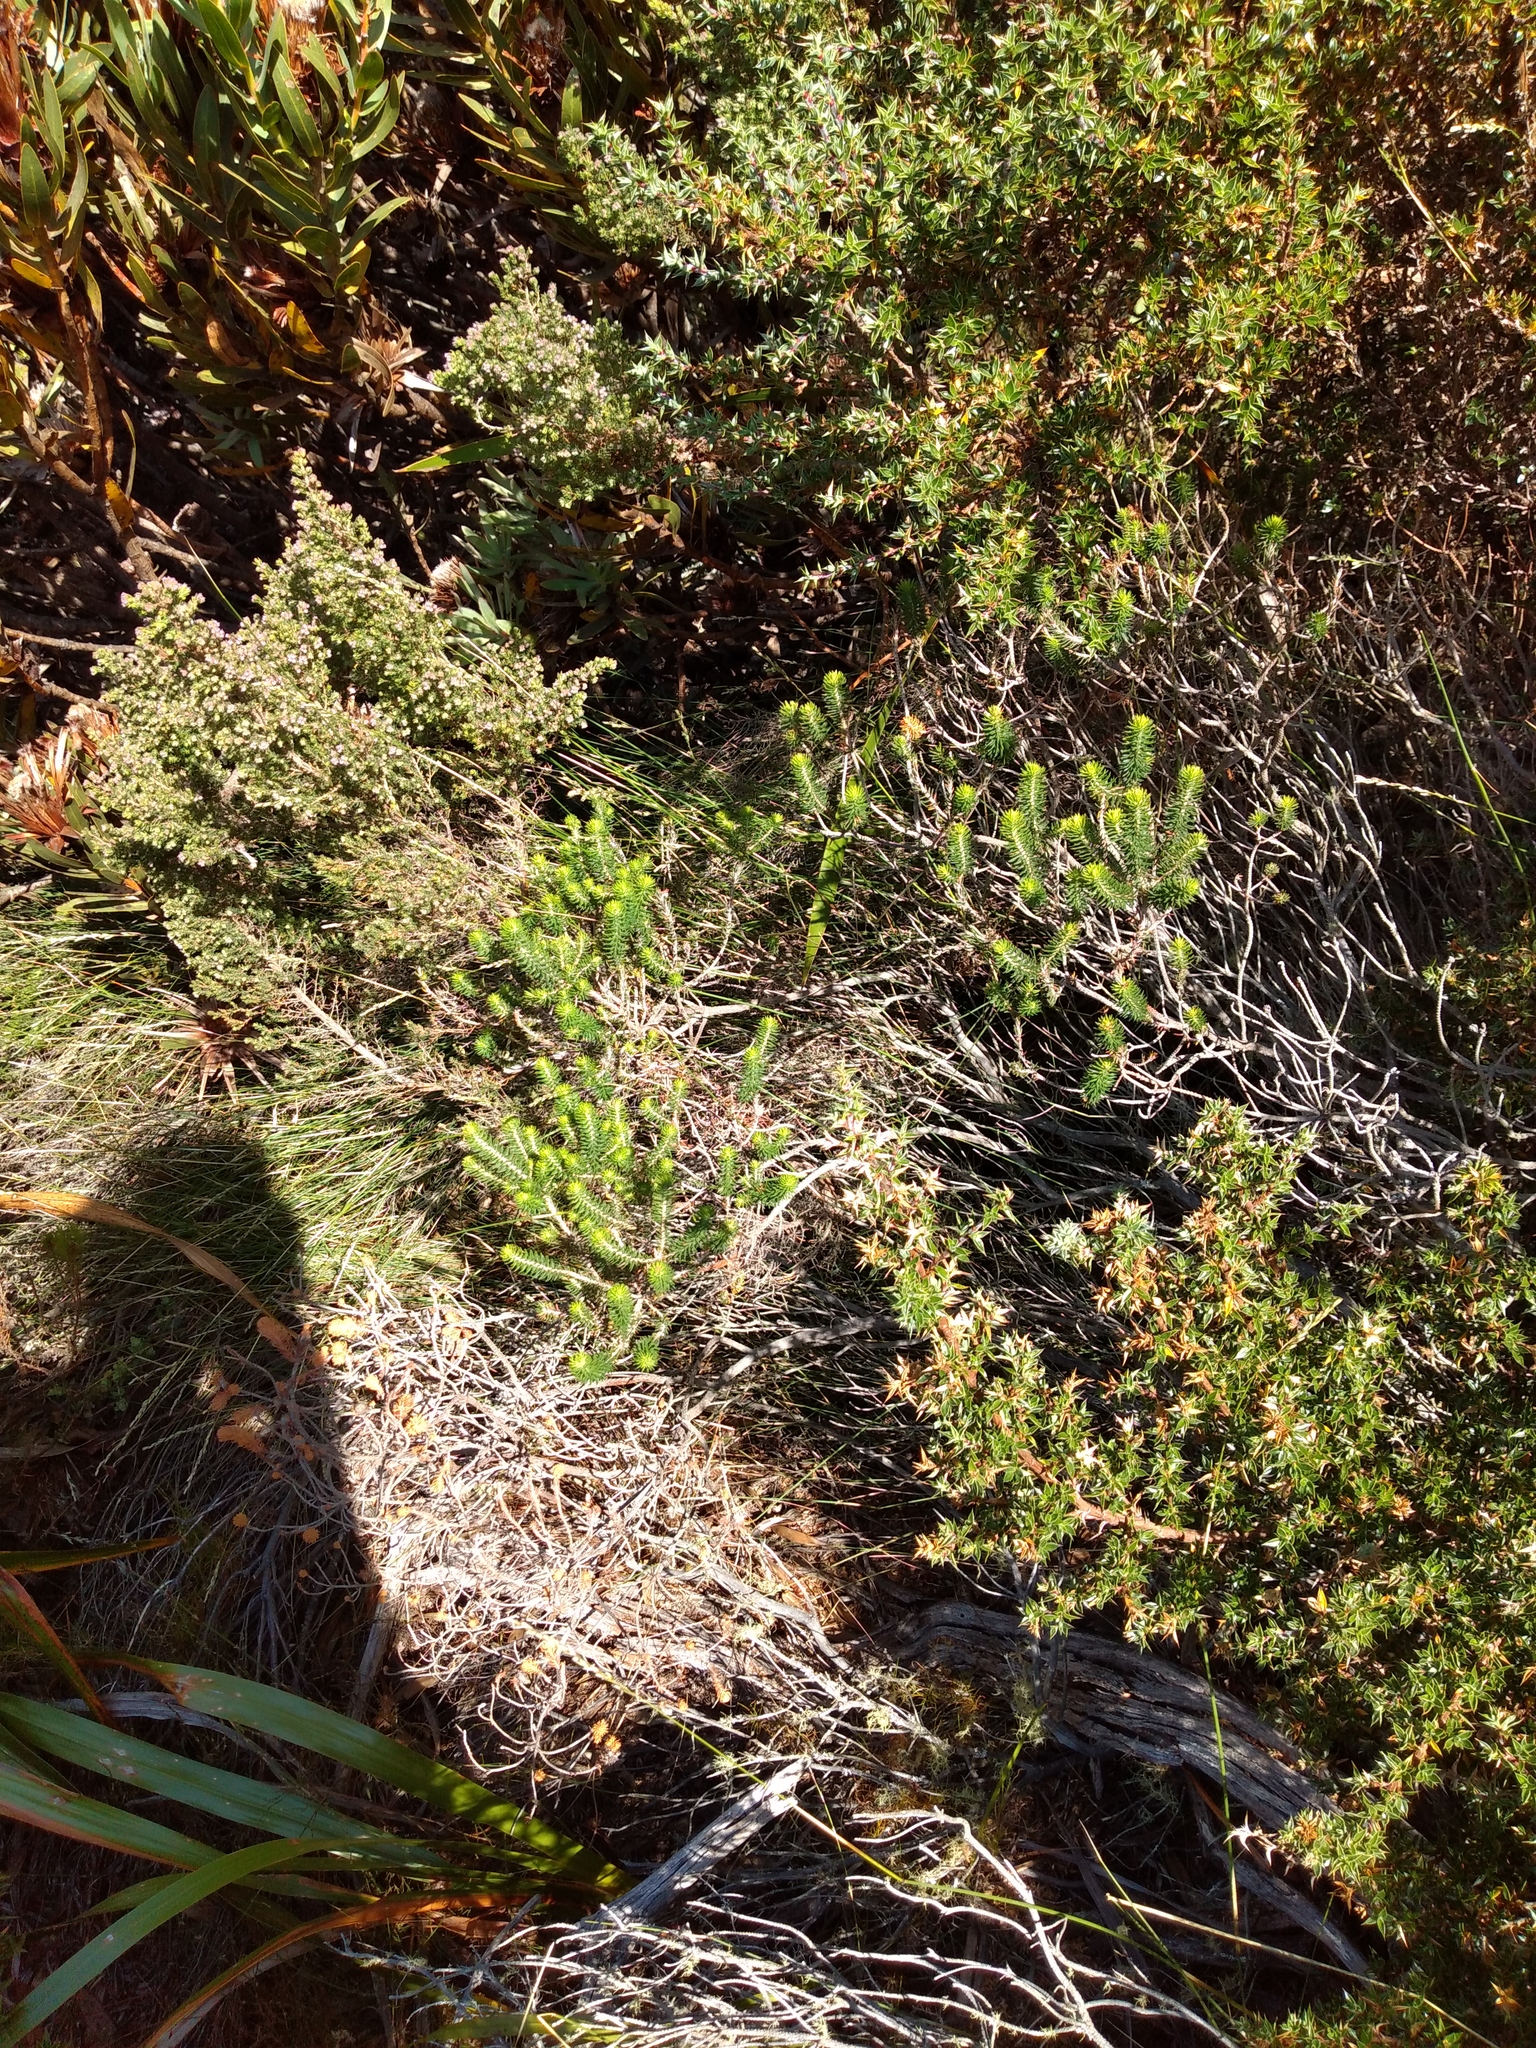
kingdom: Plantae
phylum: Tracheophyta
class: Magnoliopsida
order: Ericales
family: Ericaceae
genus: Erica
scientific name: Erica abietina
